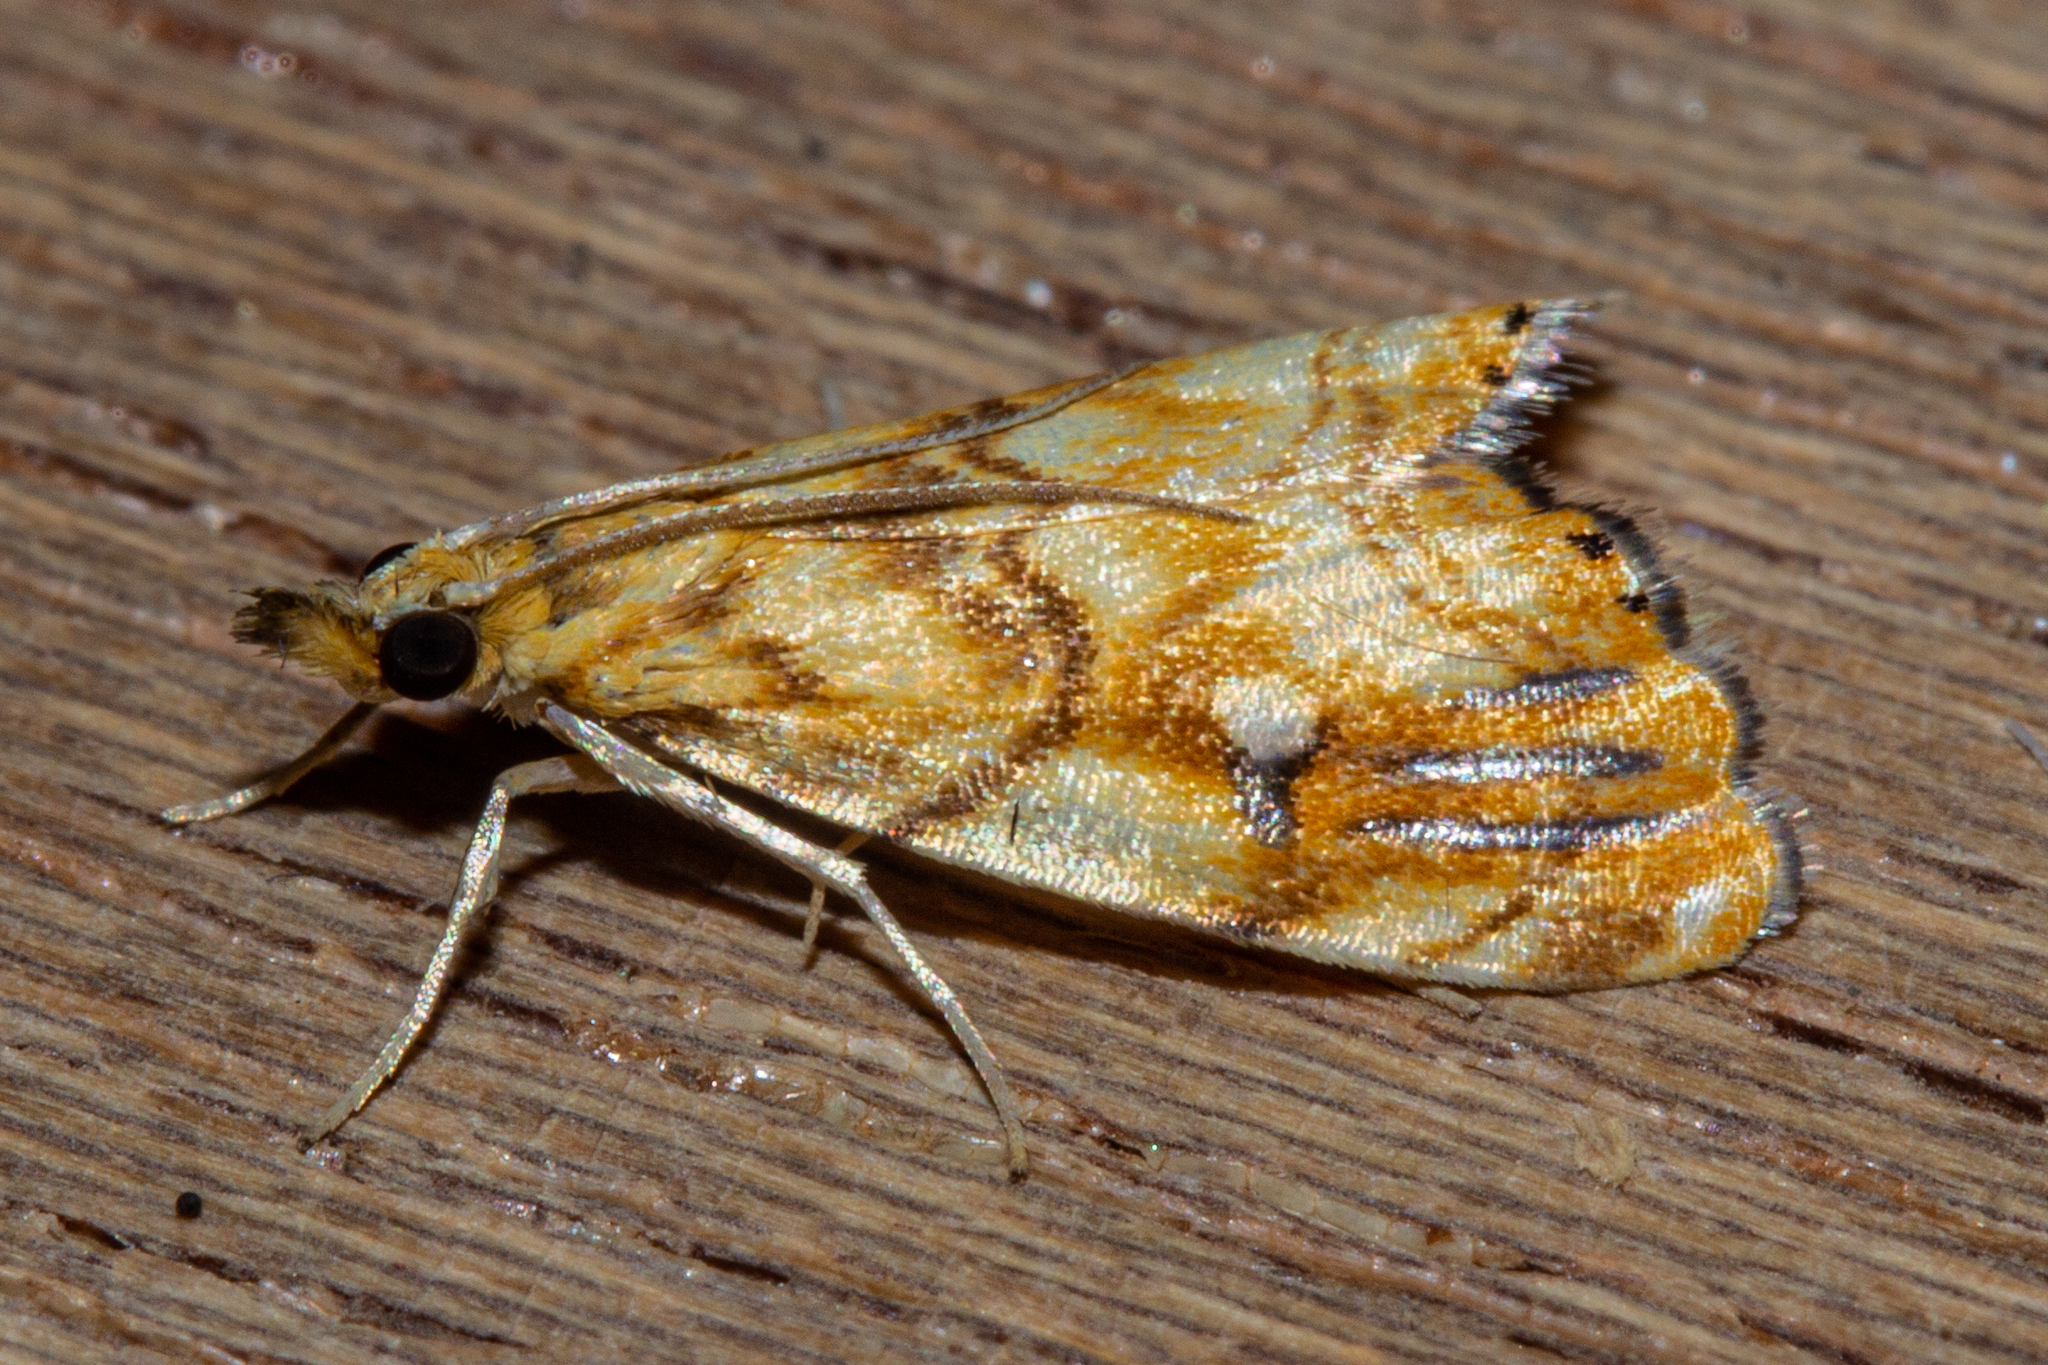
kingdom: Animalia
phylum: Arthropoda
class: Insecta
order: Lepidoptera
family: Crambidae
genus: Glaucocharis
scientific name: Glaucocharis selenaea
